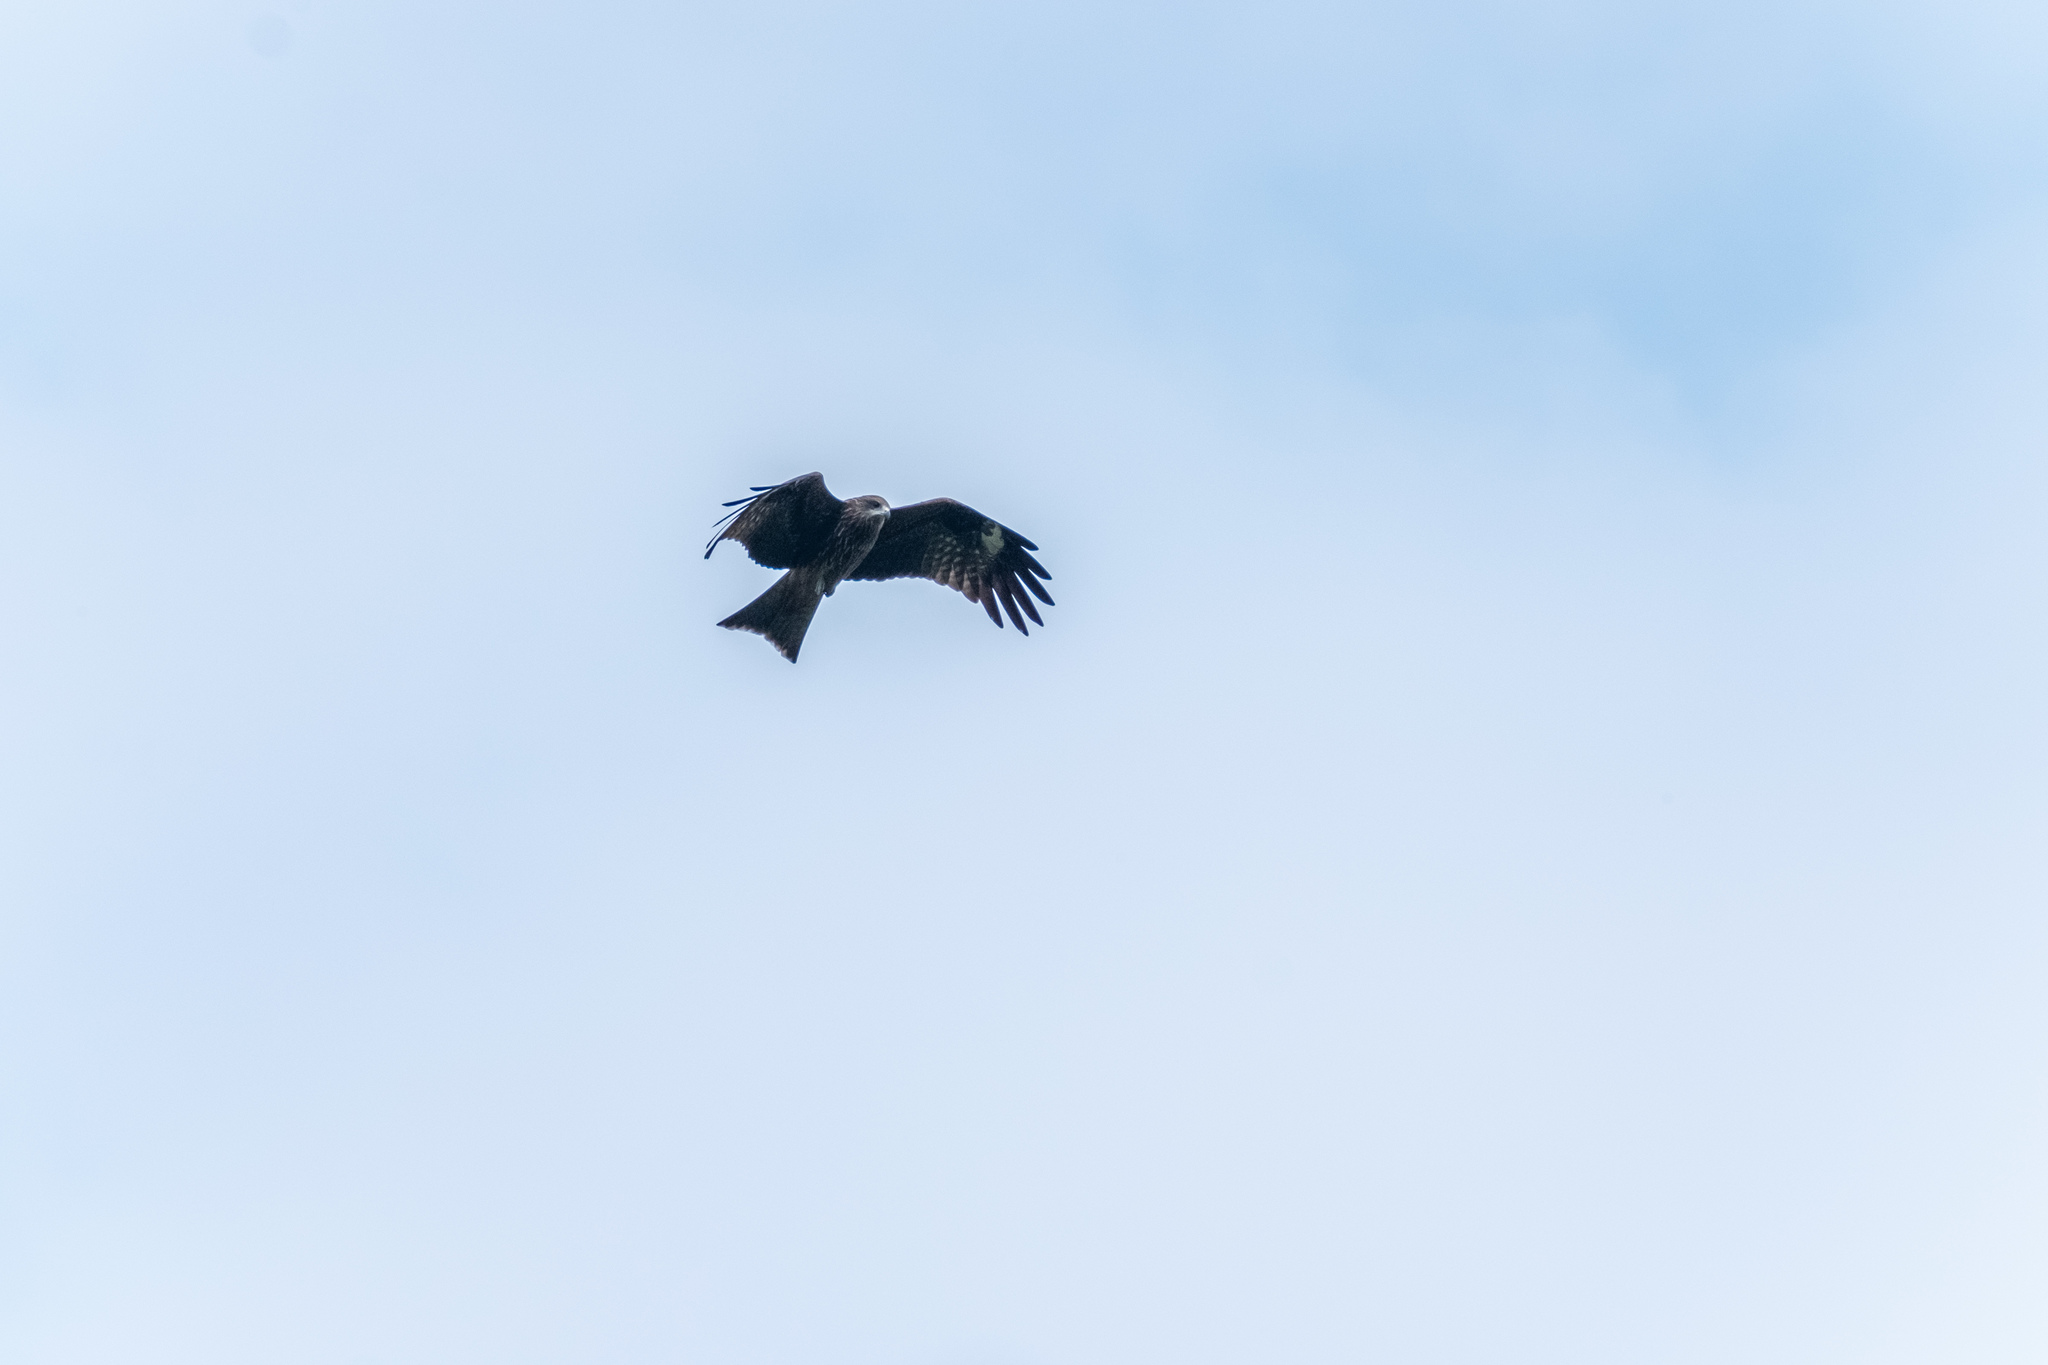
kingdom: Animalia
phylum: Chordata
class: Aves
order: Accipitriformes
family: Accipitridae
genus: Milvus
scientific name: Milvus migrans
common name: Black kite
